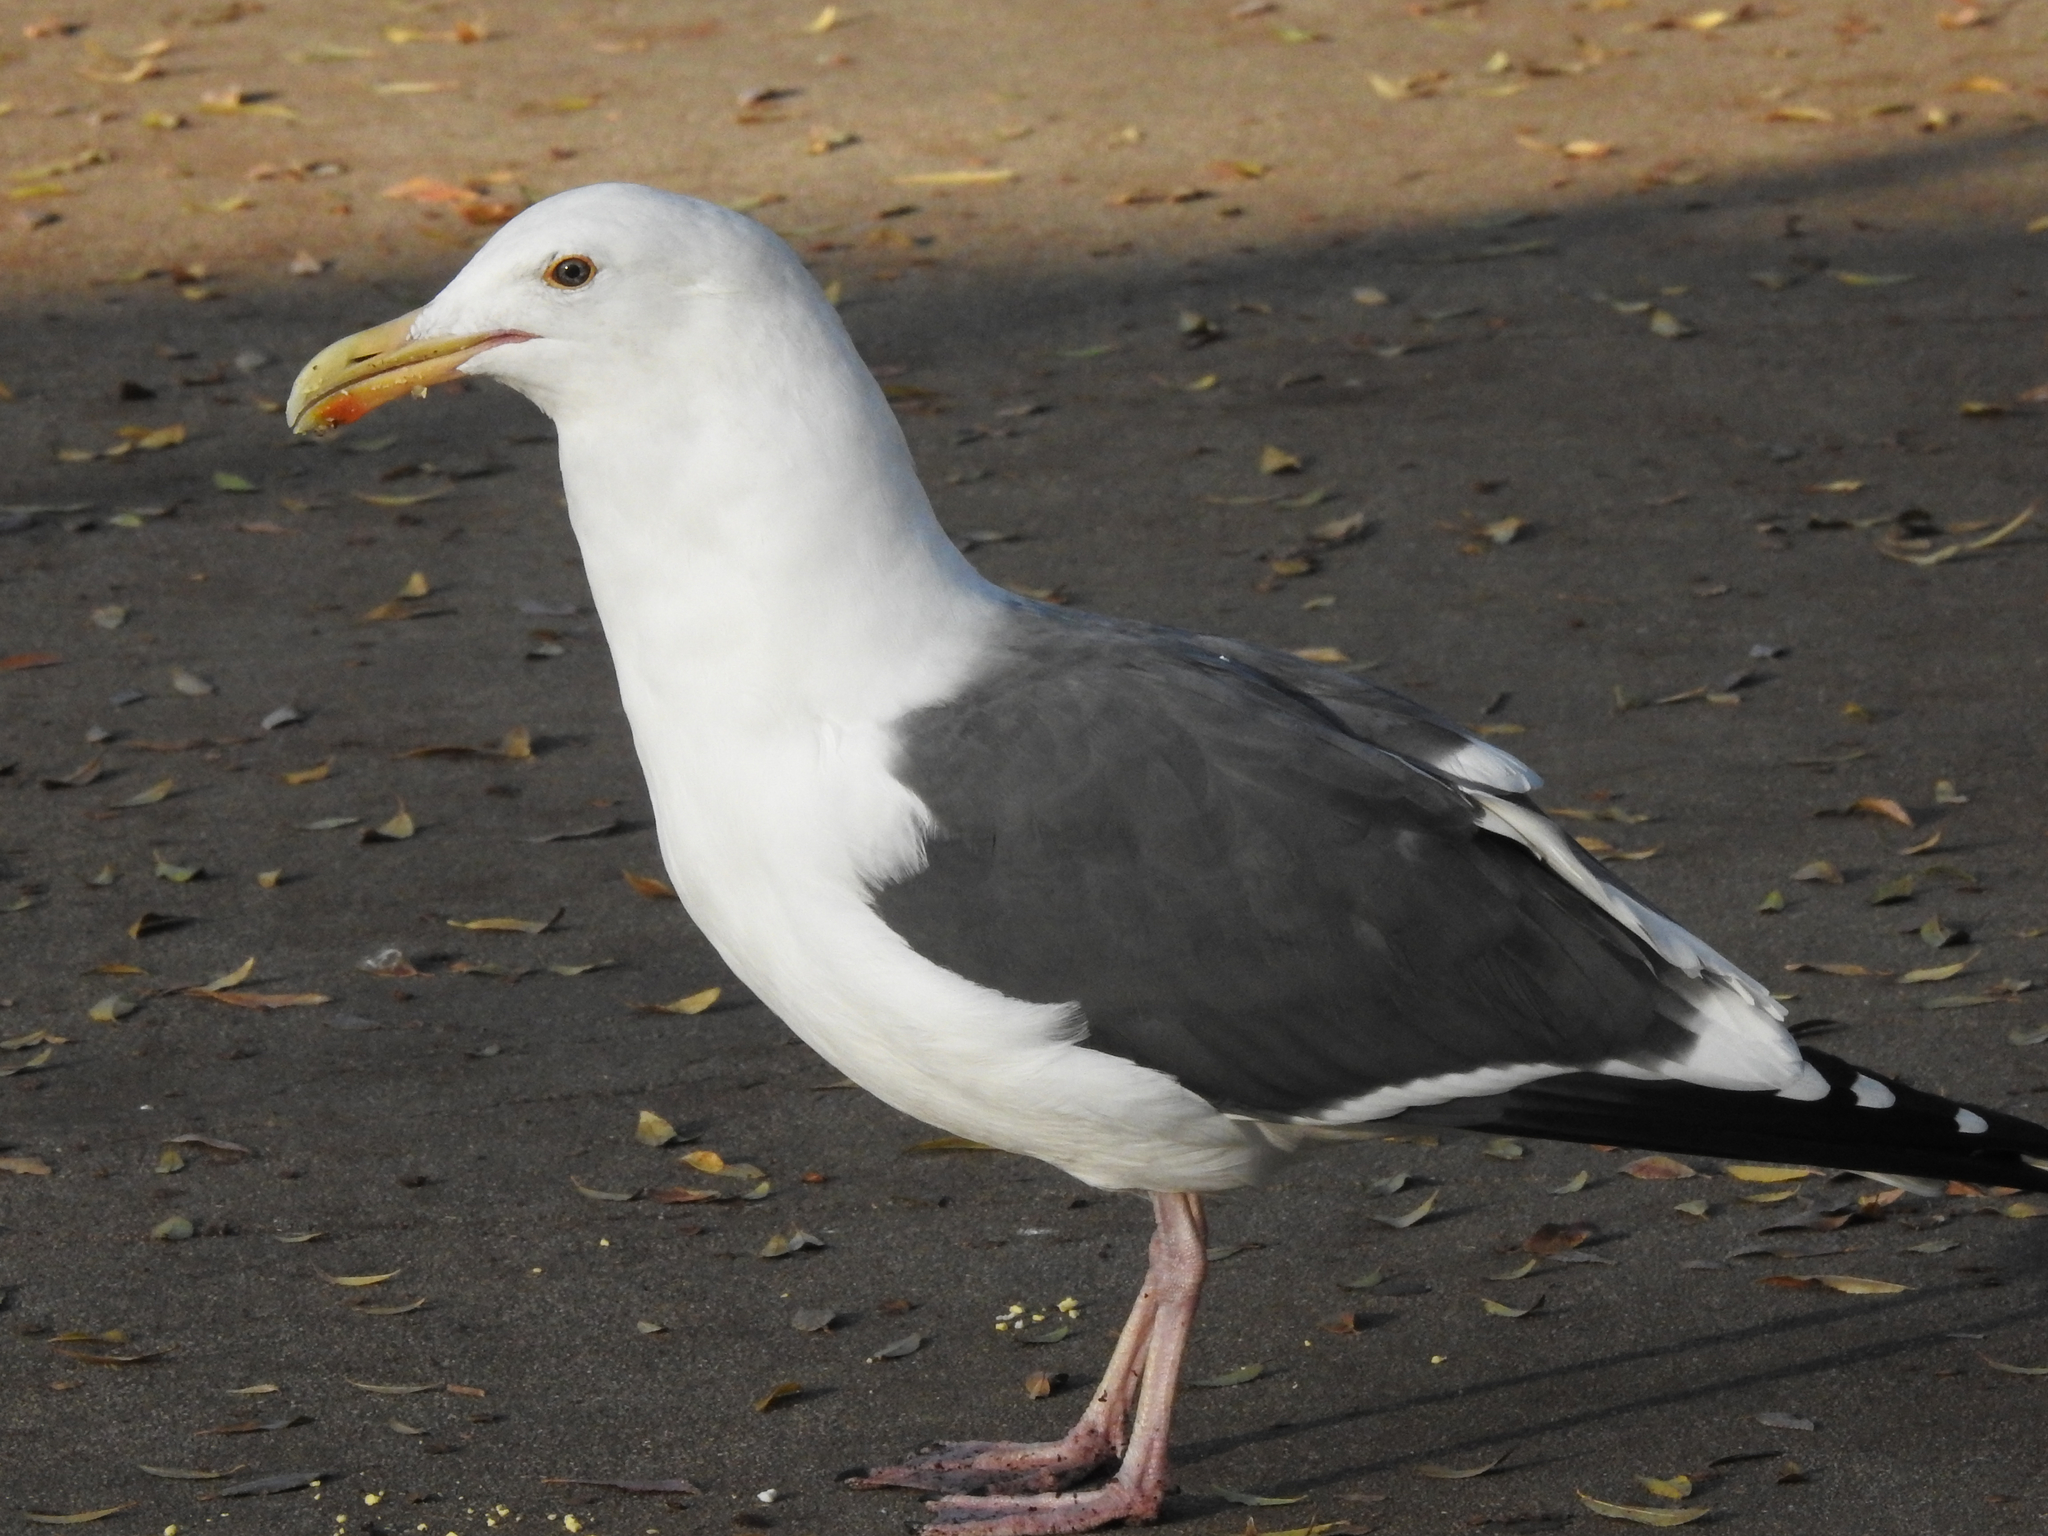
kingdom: Animalia
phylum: Chordata
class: Aves
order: Charadriiformes
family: Laridae
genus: Larus
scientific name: Larus occidentalis
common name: Western gull
